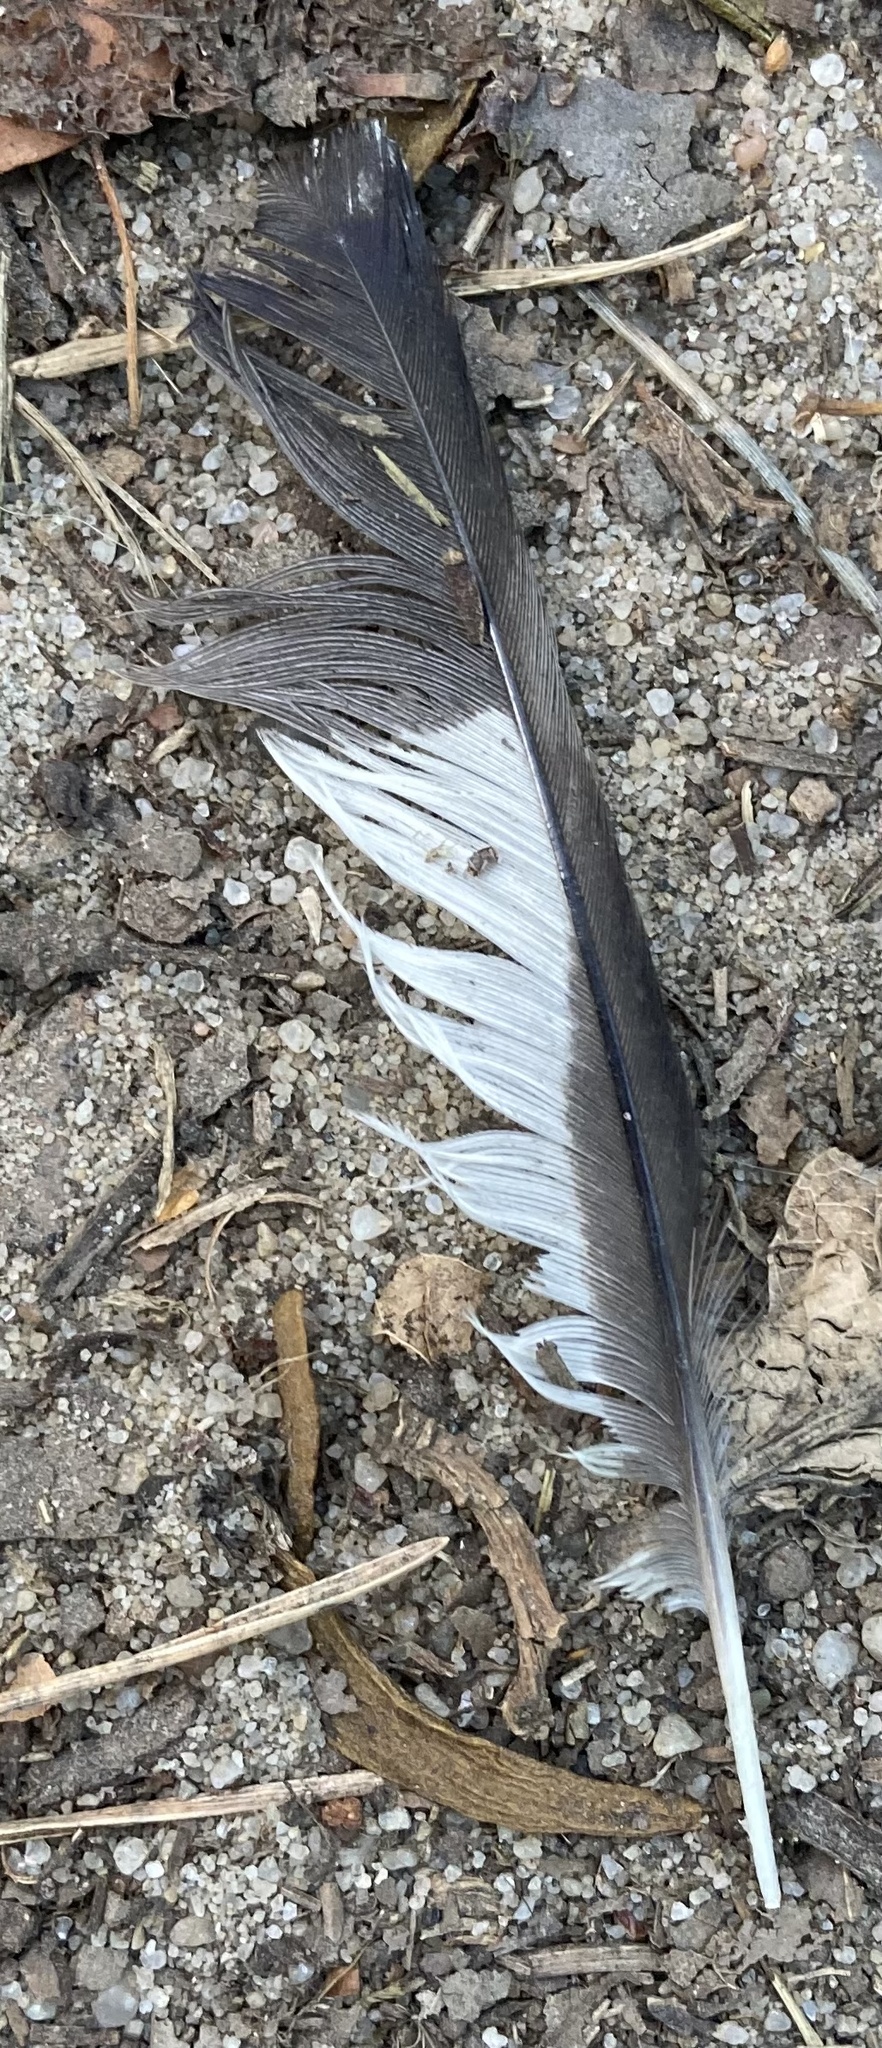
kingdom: Animalia
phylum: Chordata
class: Aves
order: Passeriformes
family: Fringillidae
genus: Coccothraustes
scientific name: Coccothraustes coccothraustes
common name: Hawfinch
